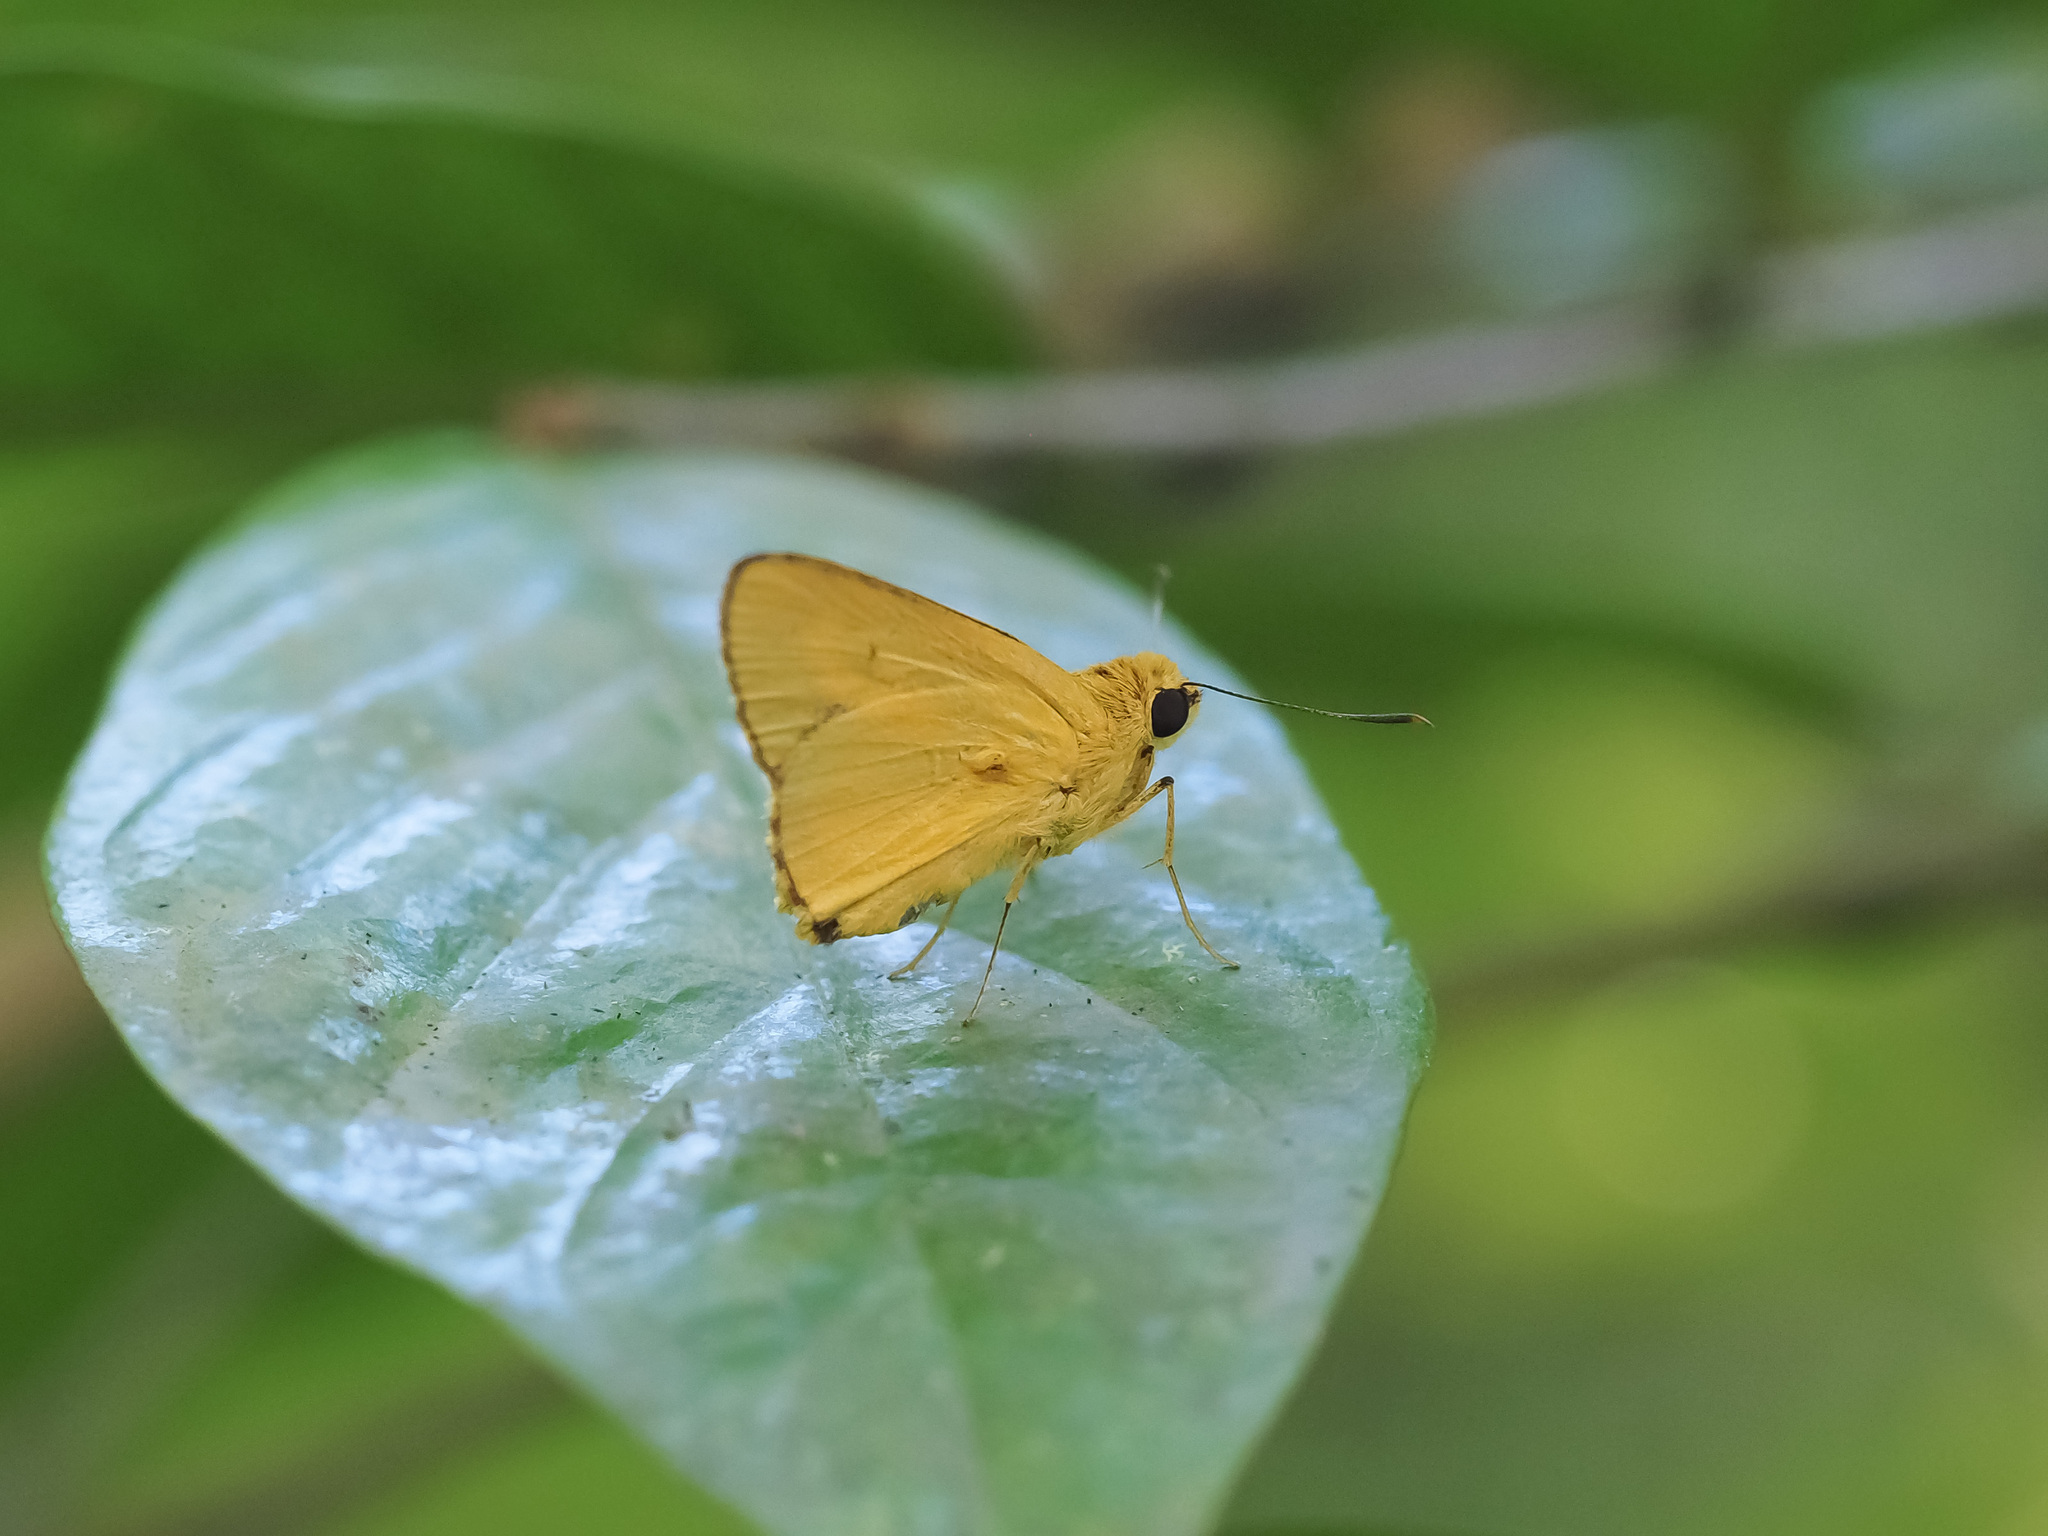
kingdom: Animalia
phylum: Arthropoda
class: Insecta
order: Lepidoptera
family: Hesperiidae
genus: Cupitha
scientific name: Cupitha purreea
